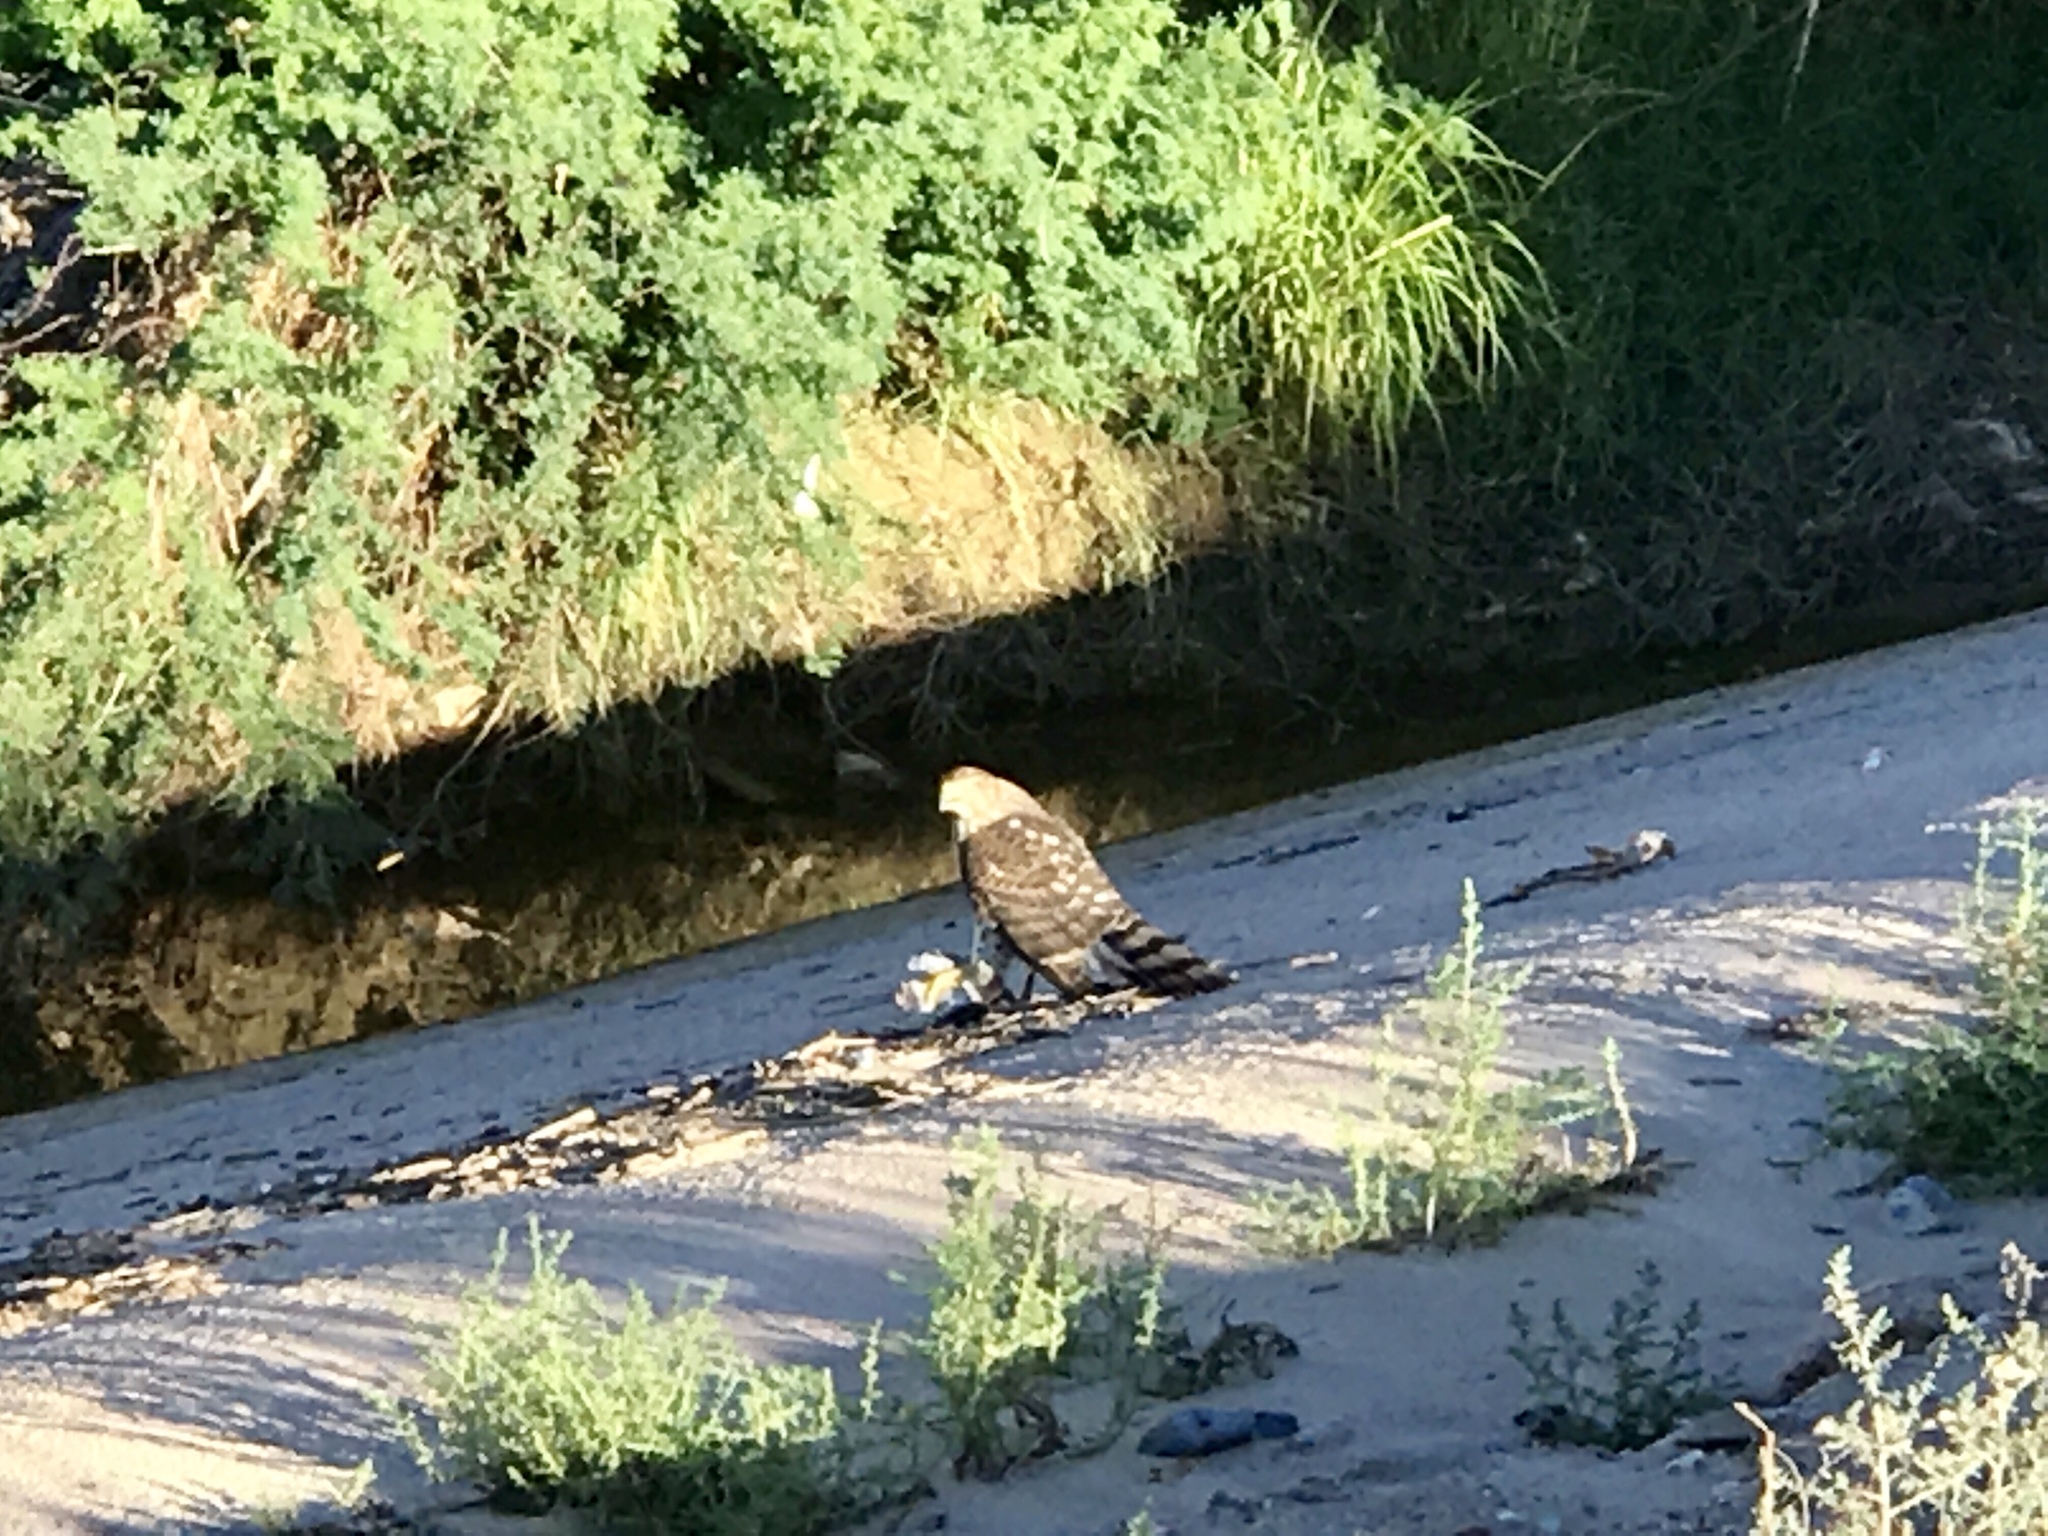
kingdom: Animalia
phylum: Chordata
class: Aves
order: Accipitriformes
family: Accipitridae
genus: Accipiter
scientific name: Accipiter cooperii
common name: Cooper's hawk
